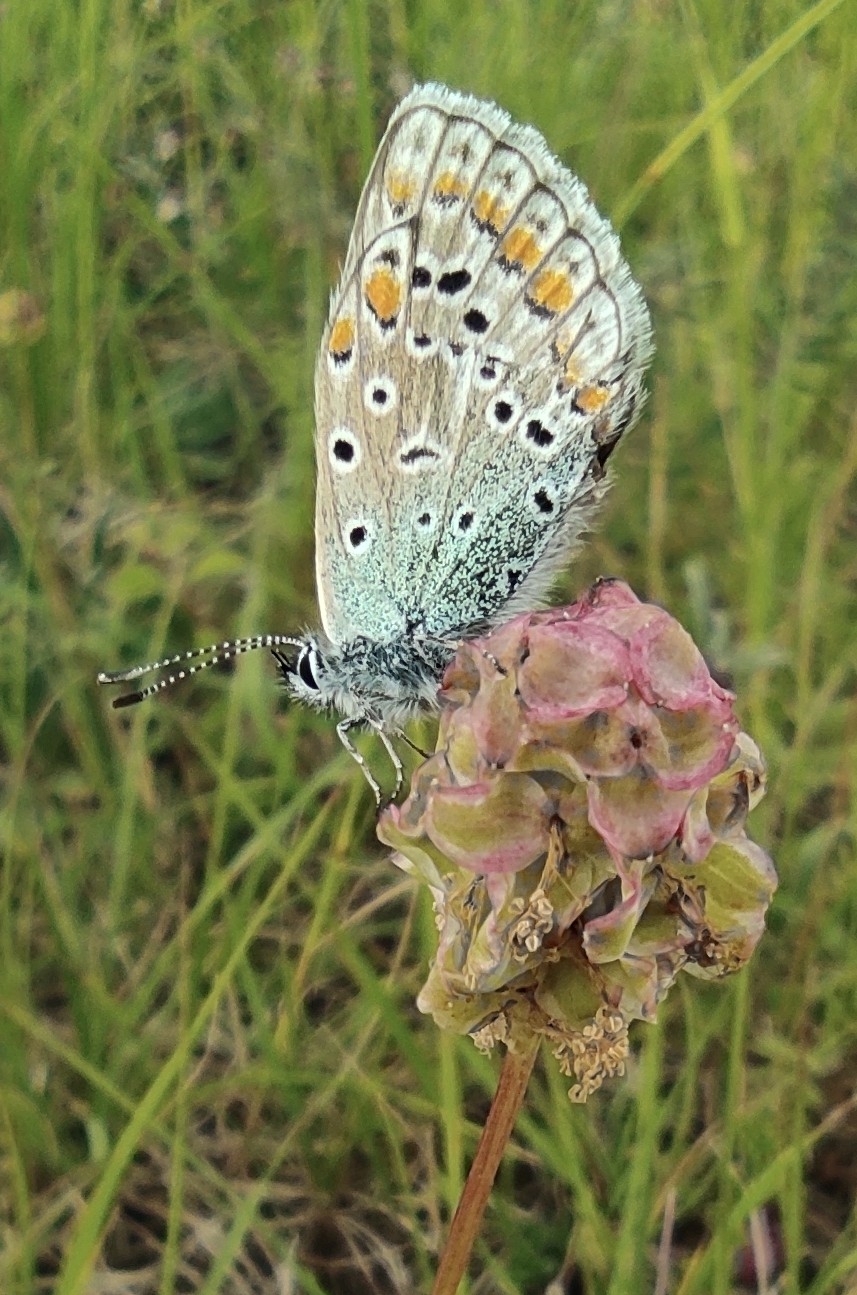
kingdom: Animalia
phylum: Arthropoda
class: Insecta
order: Lepidoptera
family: Lycaenidae
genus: Polyommatus
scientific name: Polyommatus icarus
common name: Common blue
